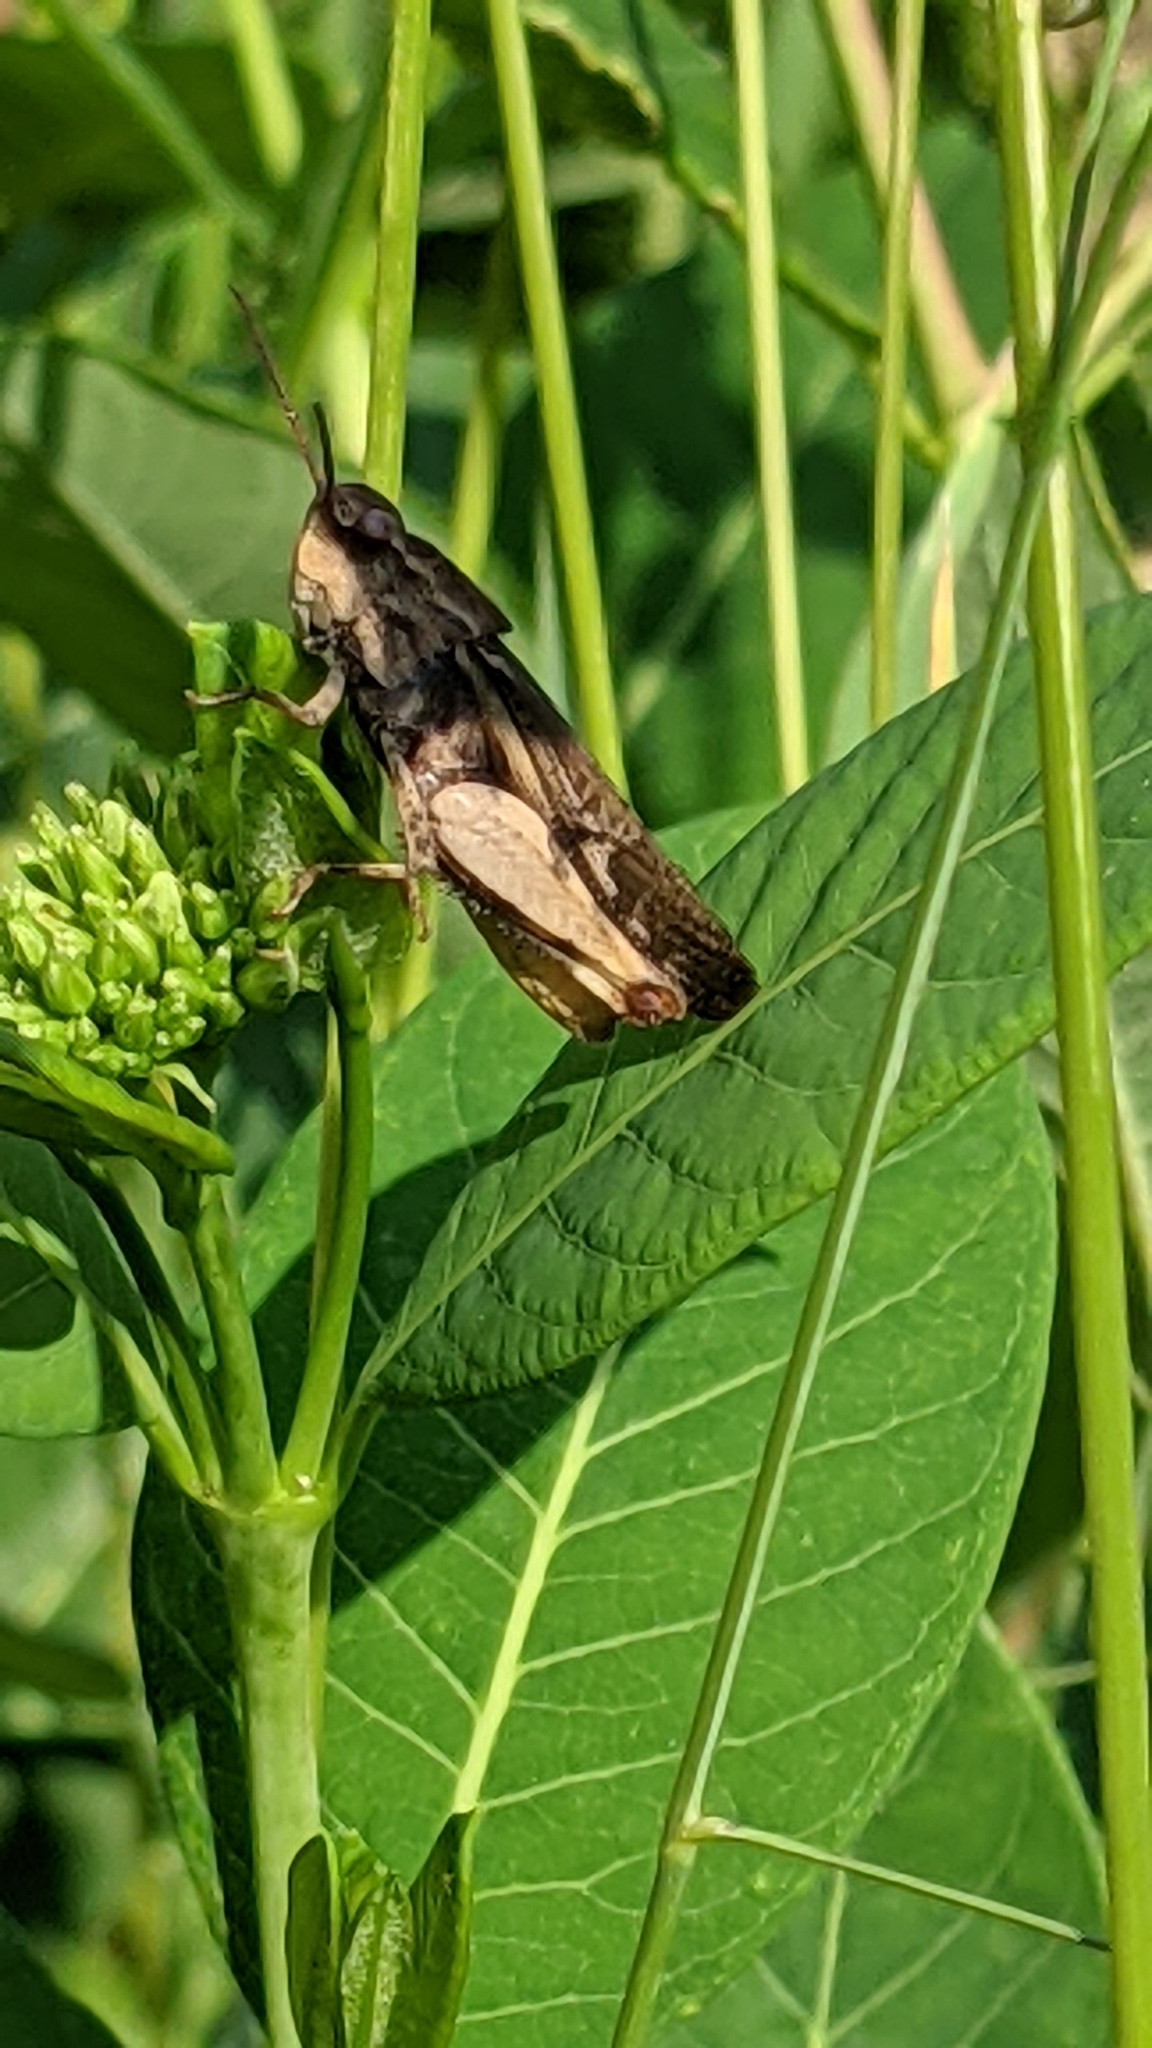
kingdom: Animalia
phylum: Arthropoda
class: Insecta
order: Orthoptera
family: Acrididae
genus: Chortophaga
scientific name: Chortophaga viridifasciata
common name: Green-striped grasshopper
